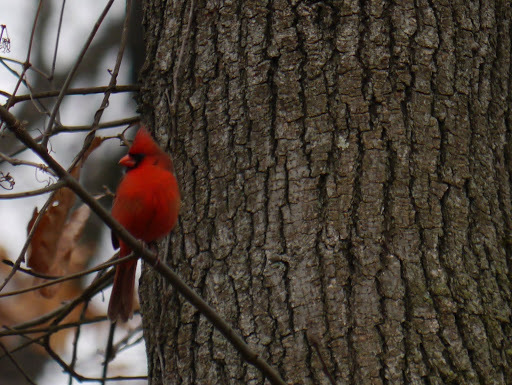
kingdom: Animalia
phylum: Chordata
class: Aves
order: Passeriformes
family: Cardinalidae
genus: Cardinalis
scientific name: Cardinalis cardinalis
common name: Northern cardinal
